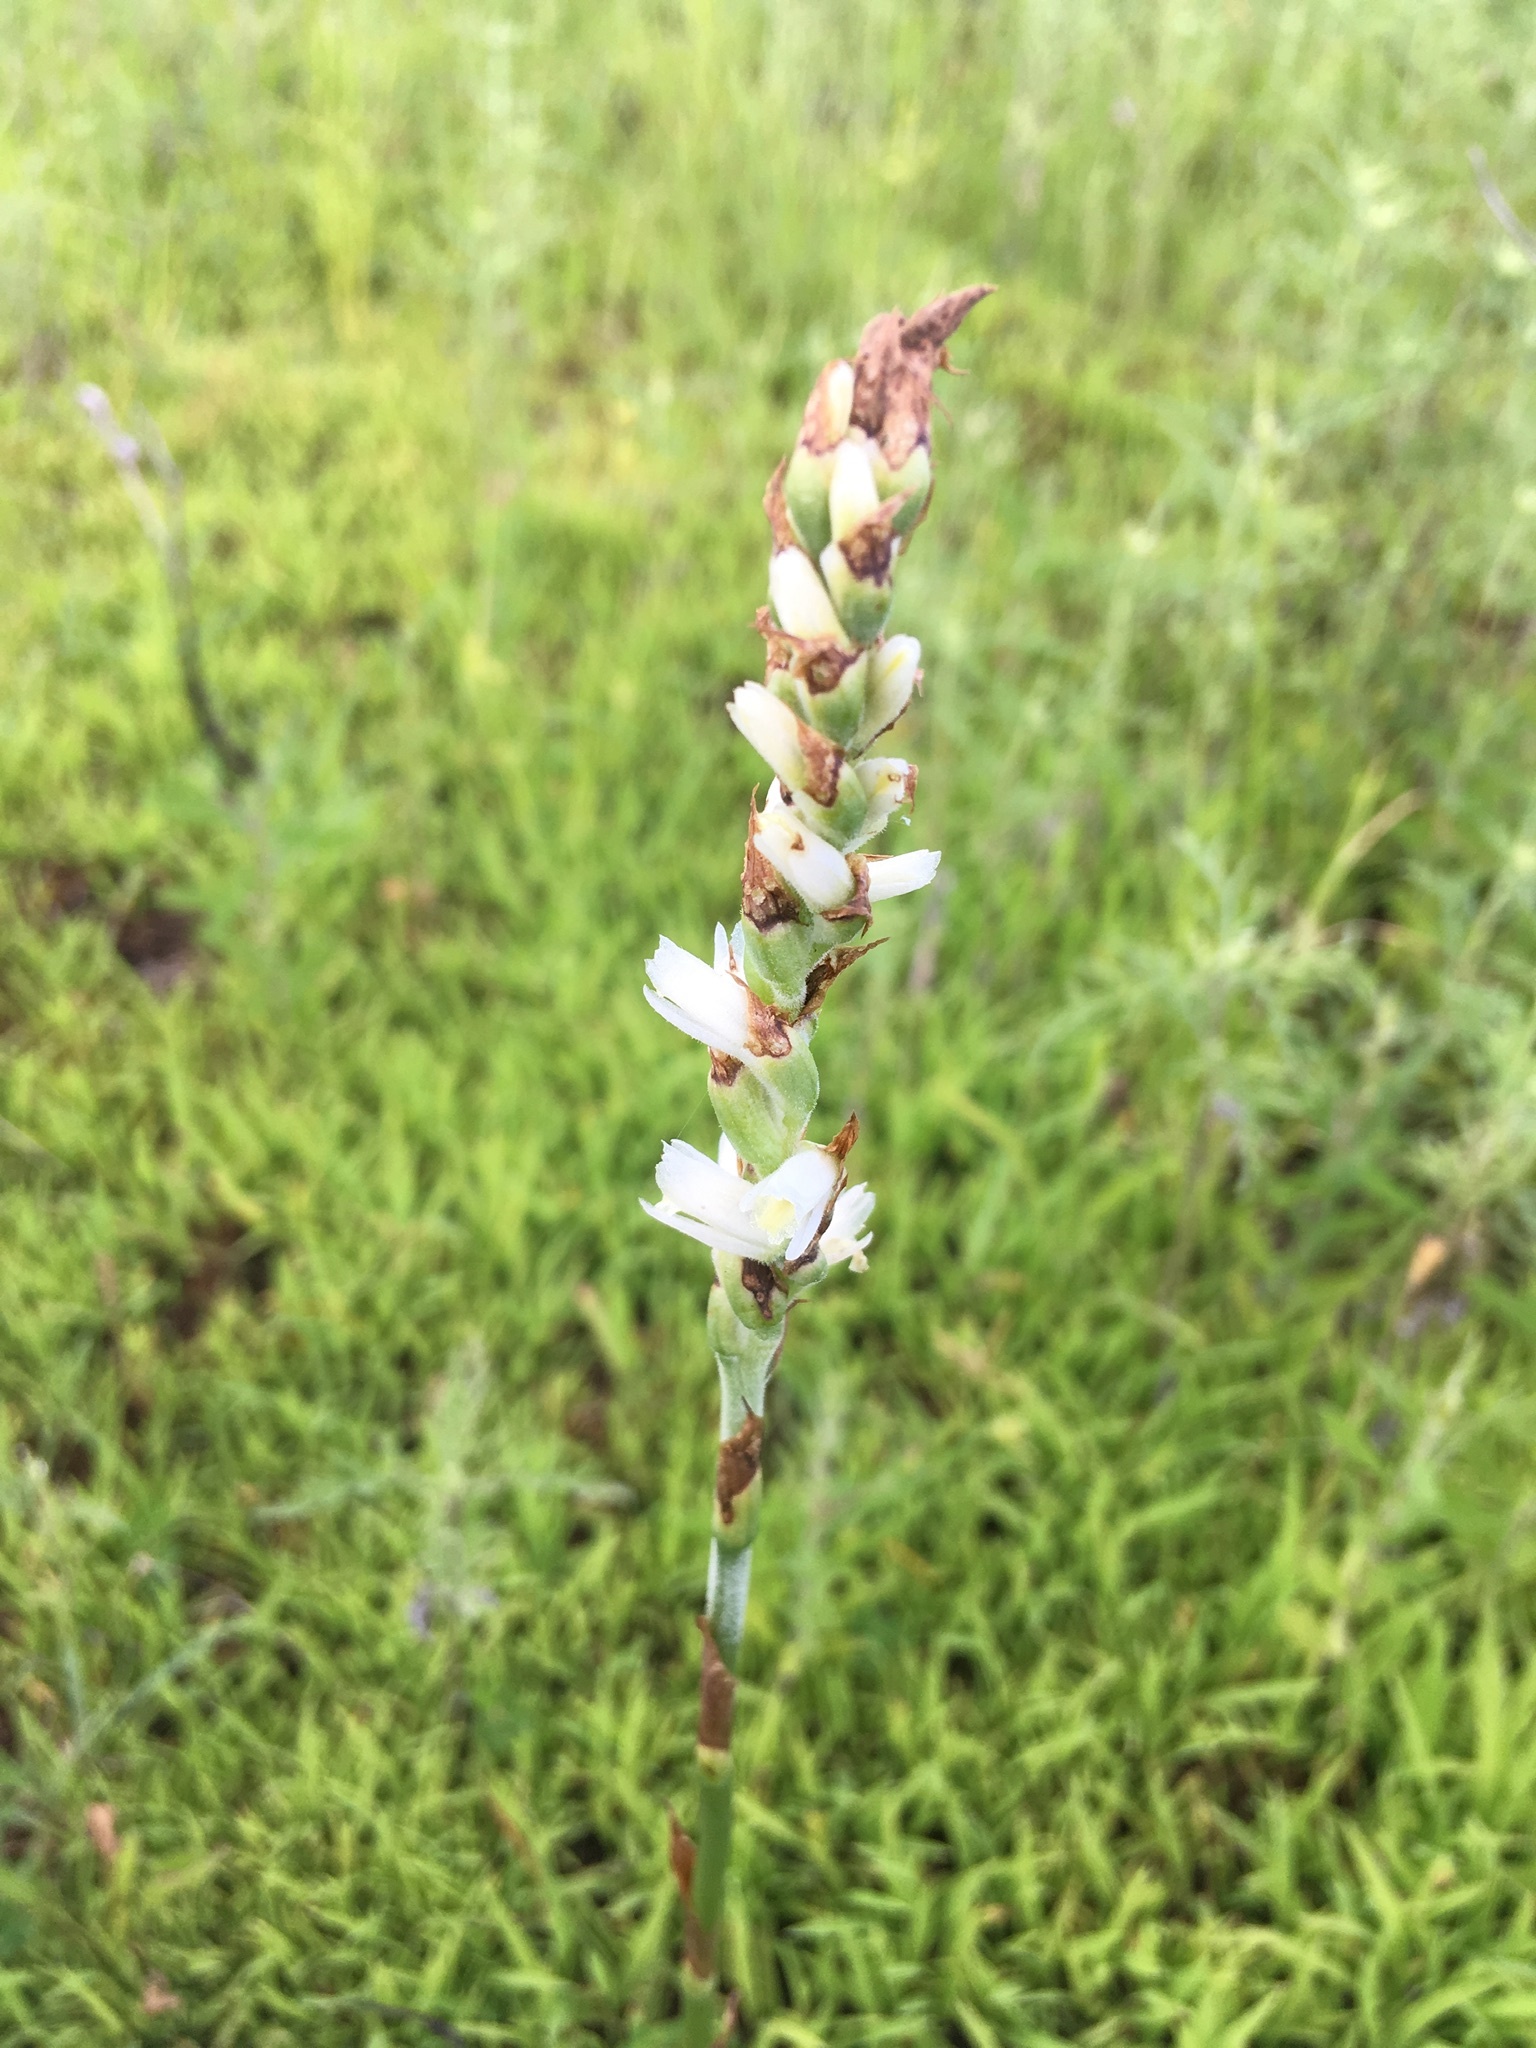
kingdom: Plantae
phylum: Tracheophyta
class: Liliopsida
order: Asparagales
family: Orchidaceae
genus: Spiranthes
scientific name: Spiranthes vernalis
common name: Spring ladies'-tresses
